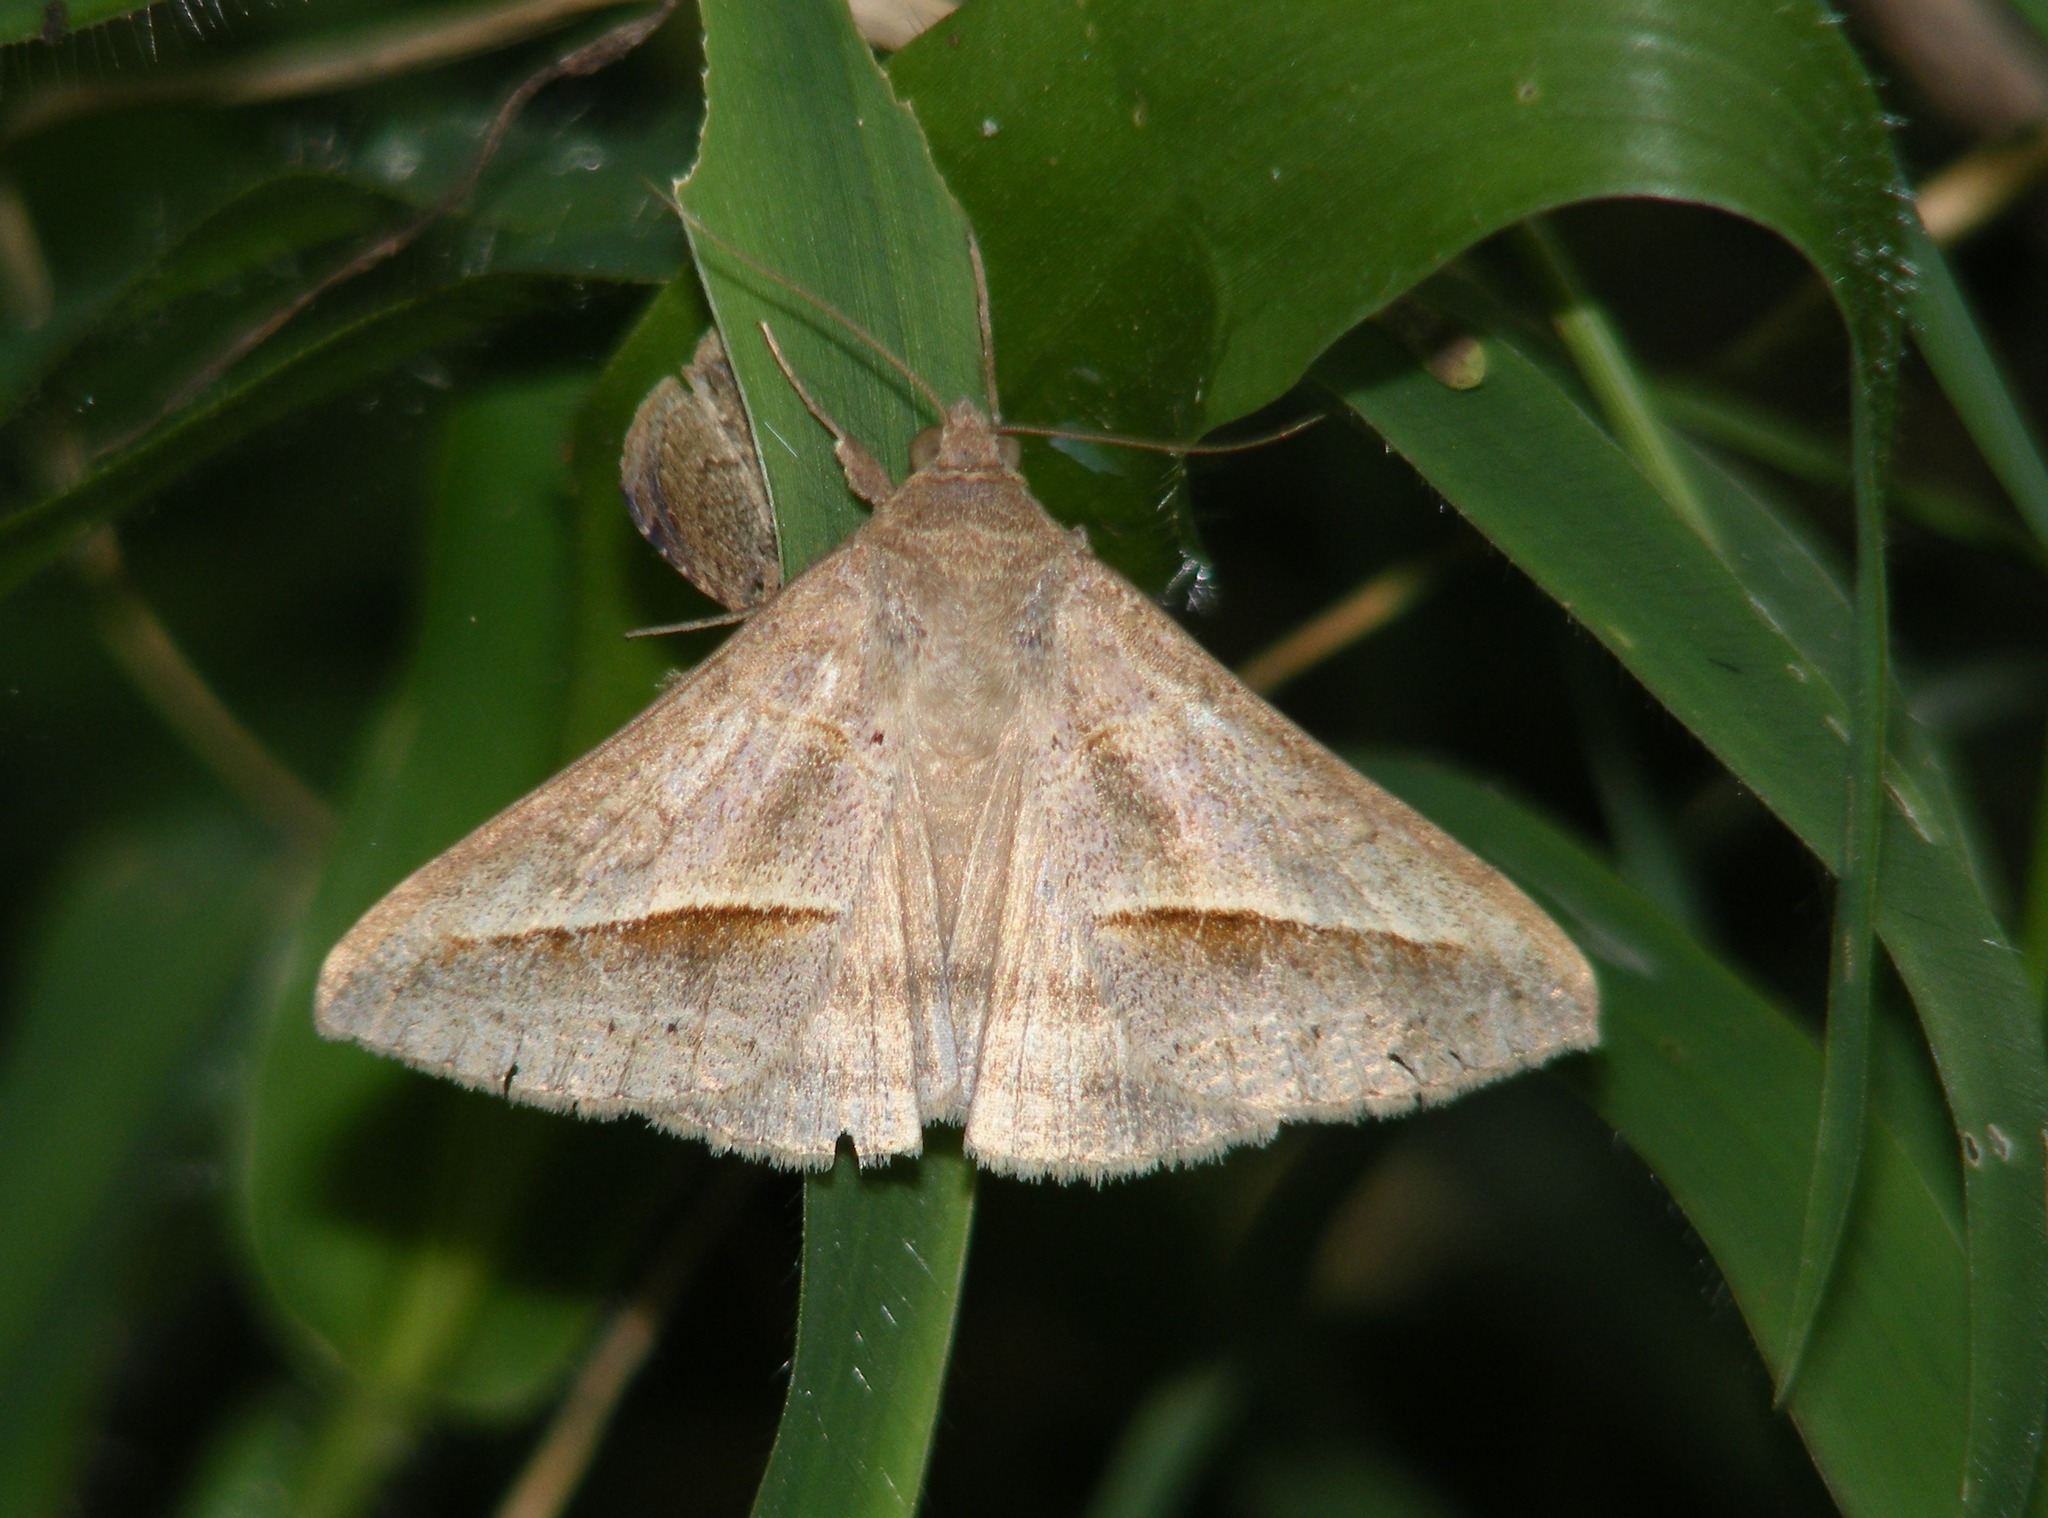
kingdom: Animalia
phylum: Arthropoda
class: Insecta
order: Lepidoptera
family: Erebidae
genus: Mocis
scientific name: Mocis frugalis
